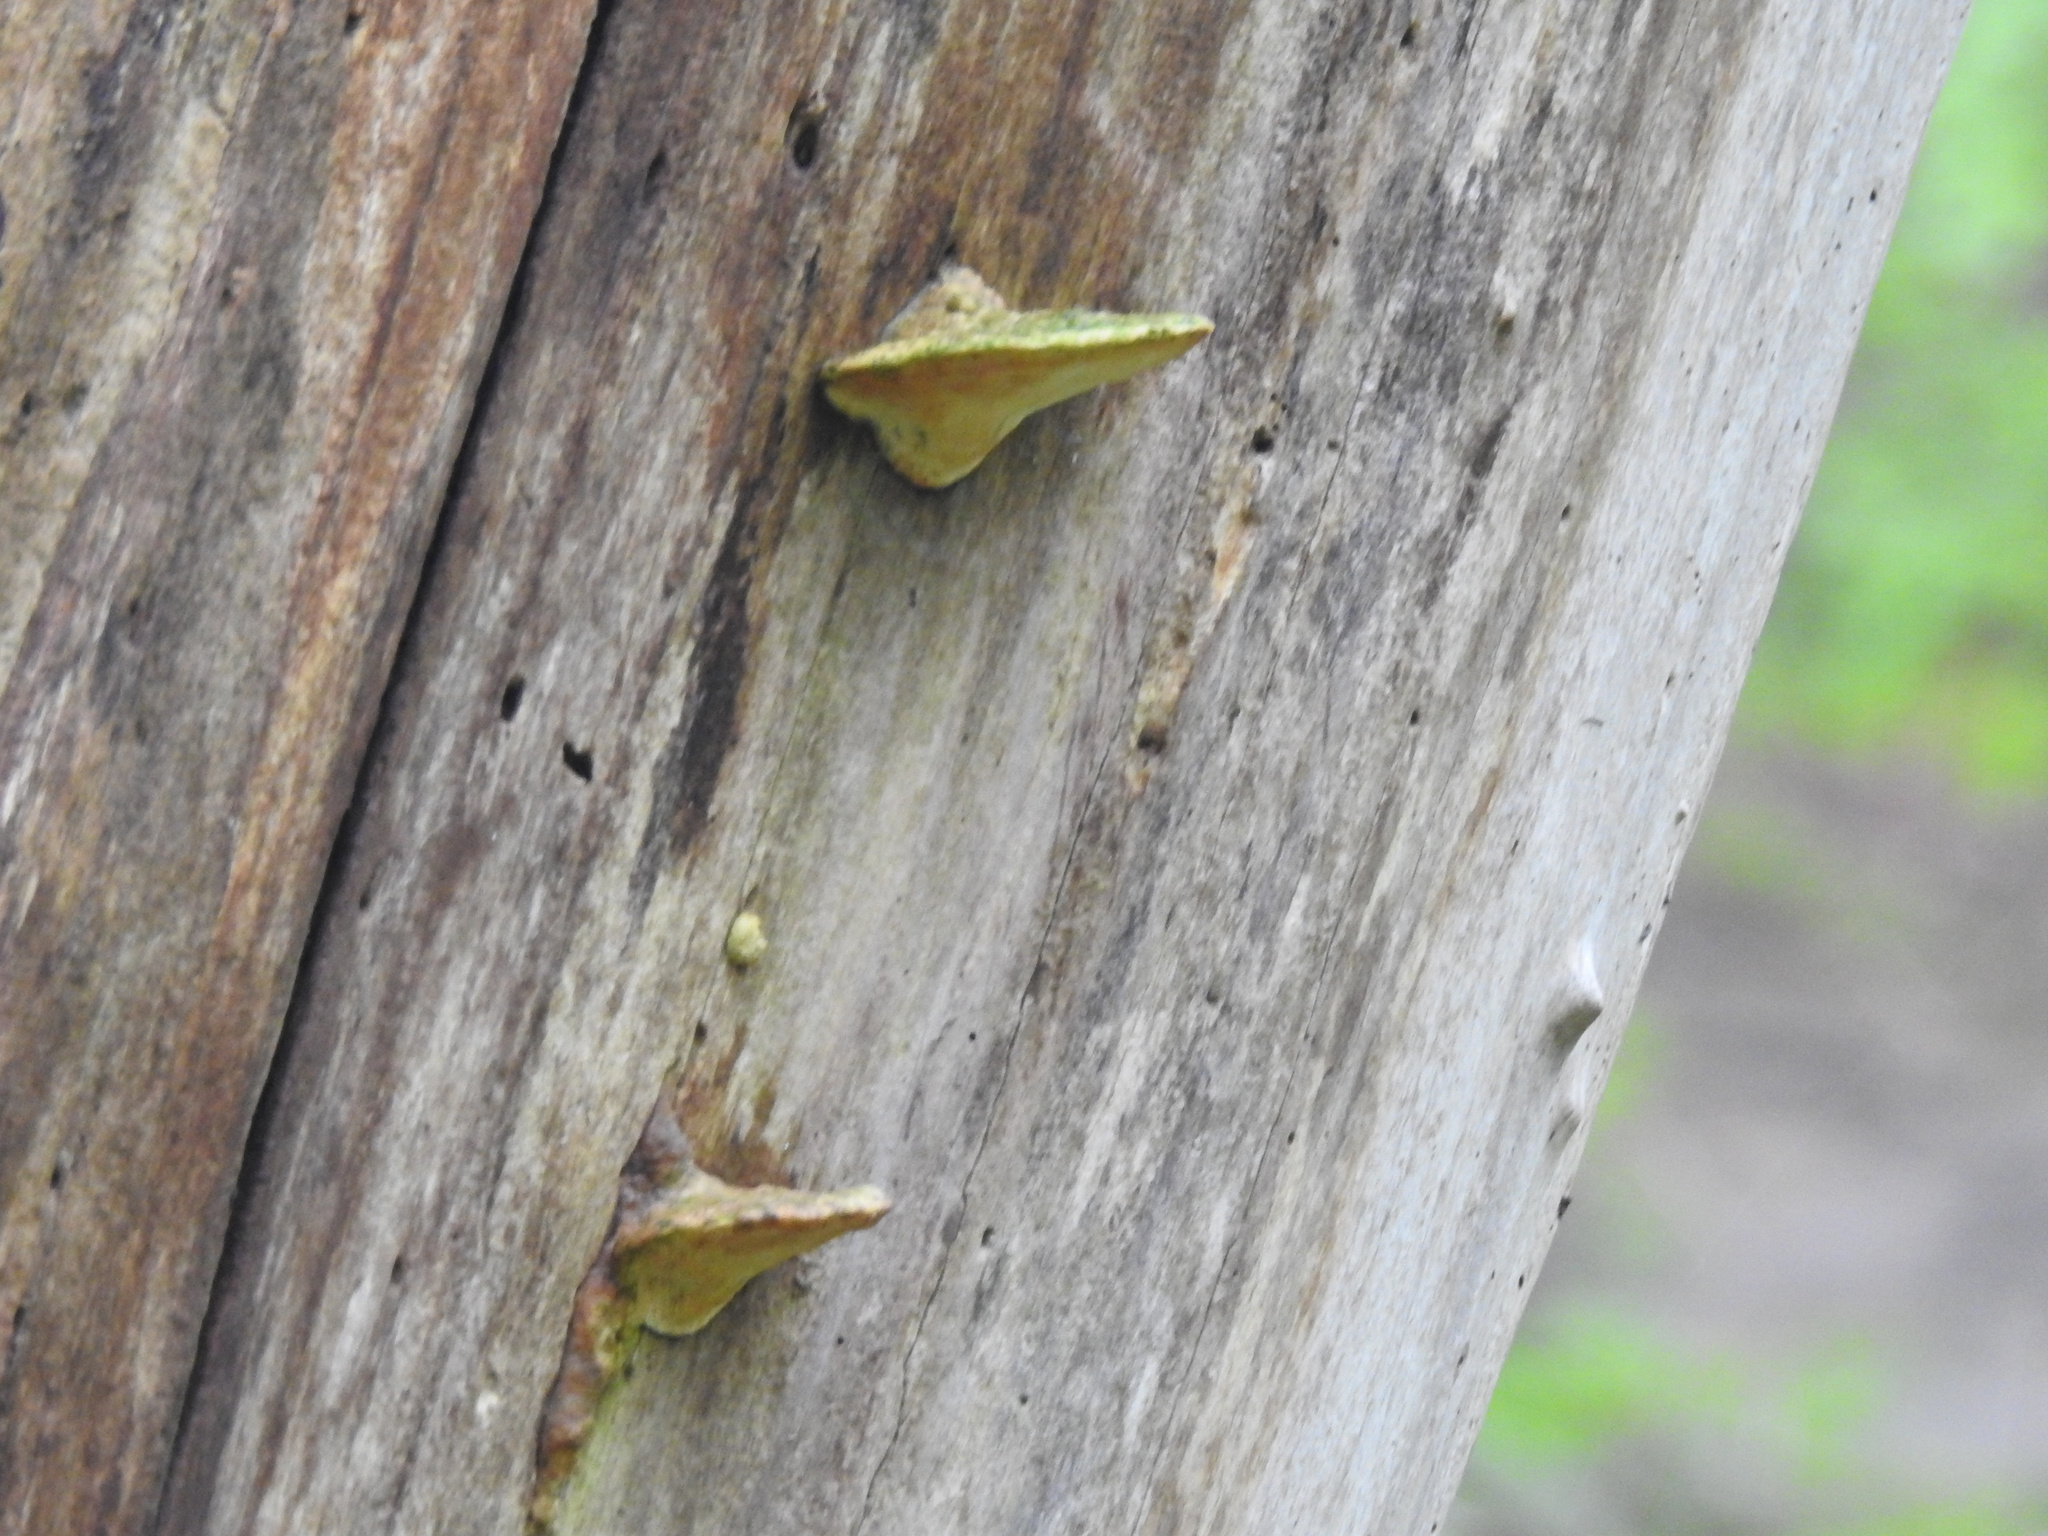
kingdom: Fungi
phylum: Basidiomycota
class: Agaricomycetes
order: Polyporales
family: Polyporaceae
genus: Trametes
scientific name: Trametes gibbosa
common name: Lumpy bracket
